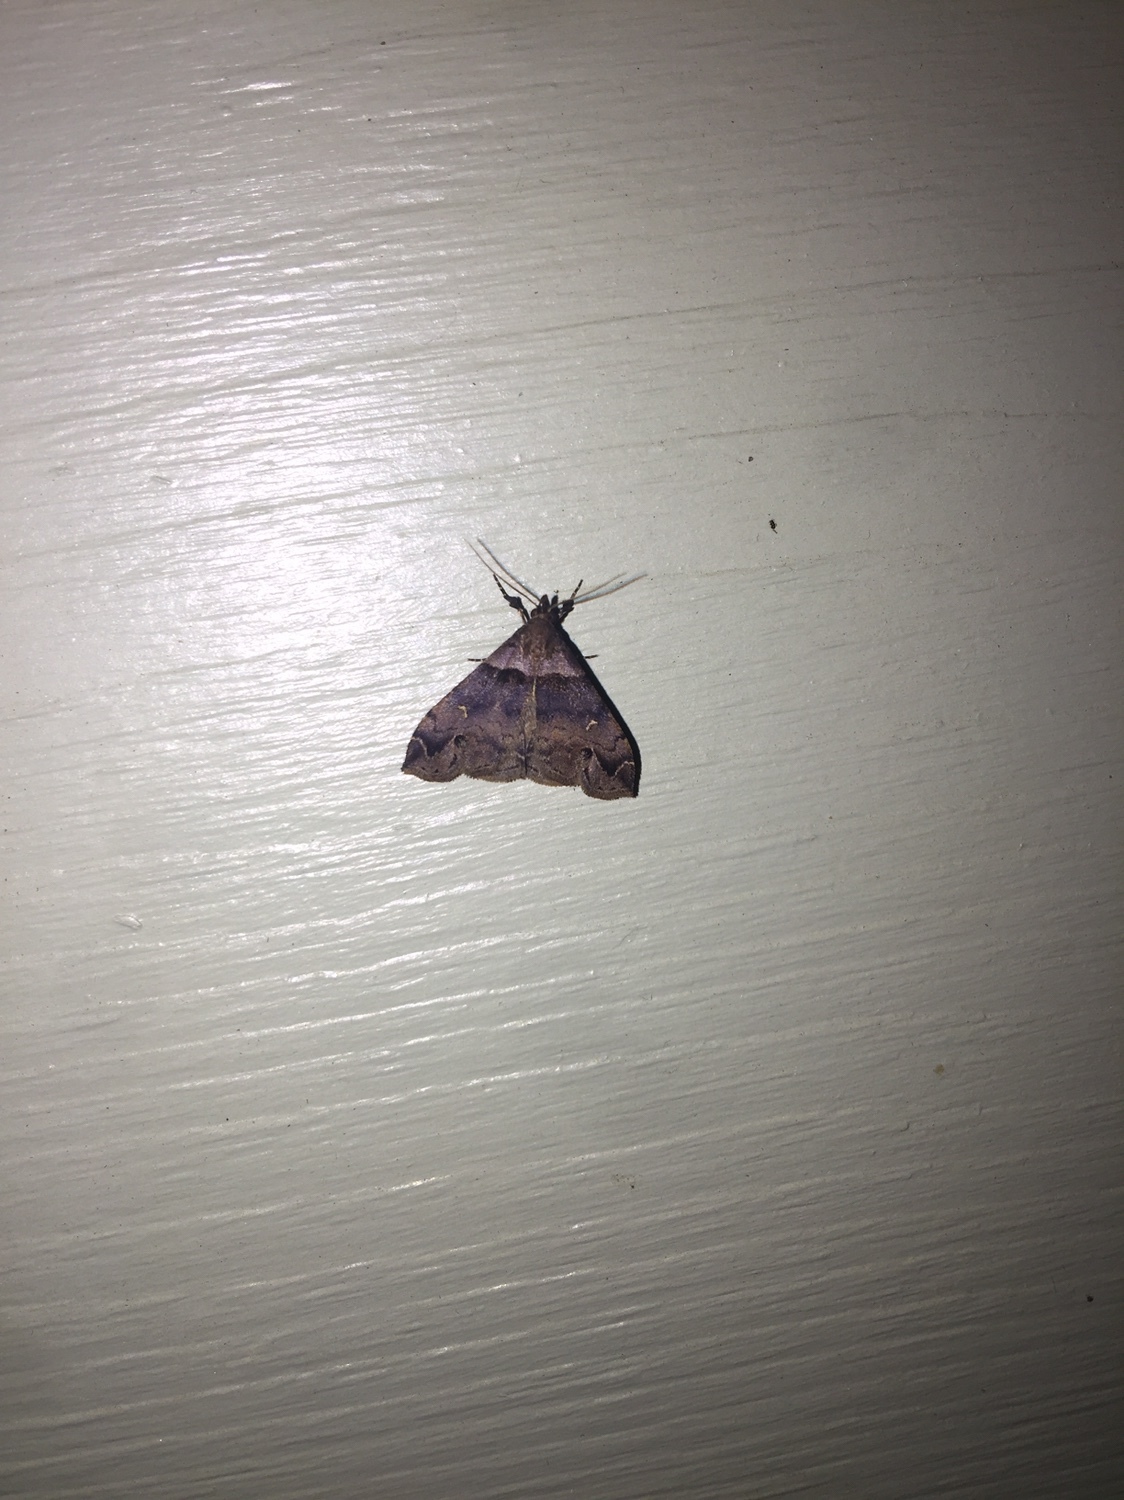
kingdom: Animalia
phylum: Arthropoda
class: Insecta
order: Lepidoptera
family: Erebidae
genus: Lascoria
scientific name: Lascoria ambigualis
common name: Ambiguous moth
